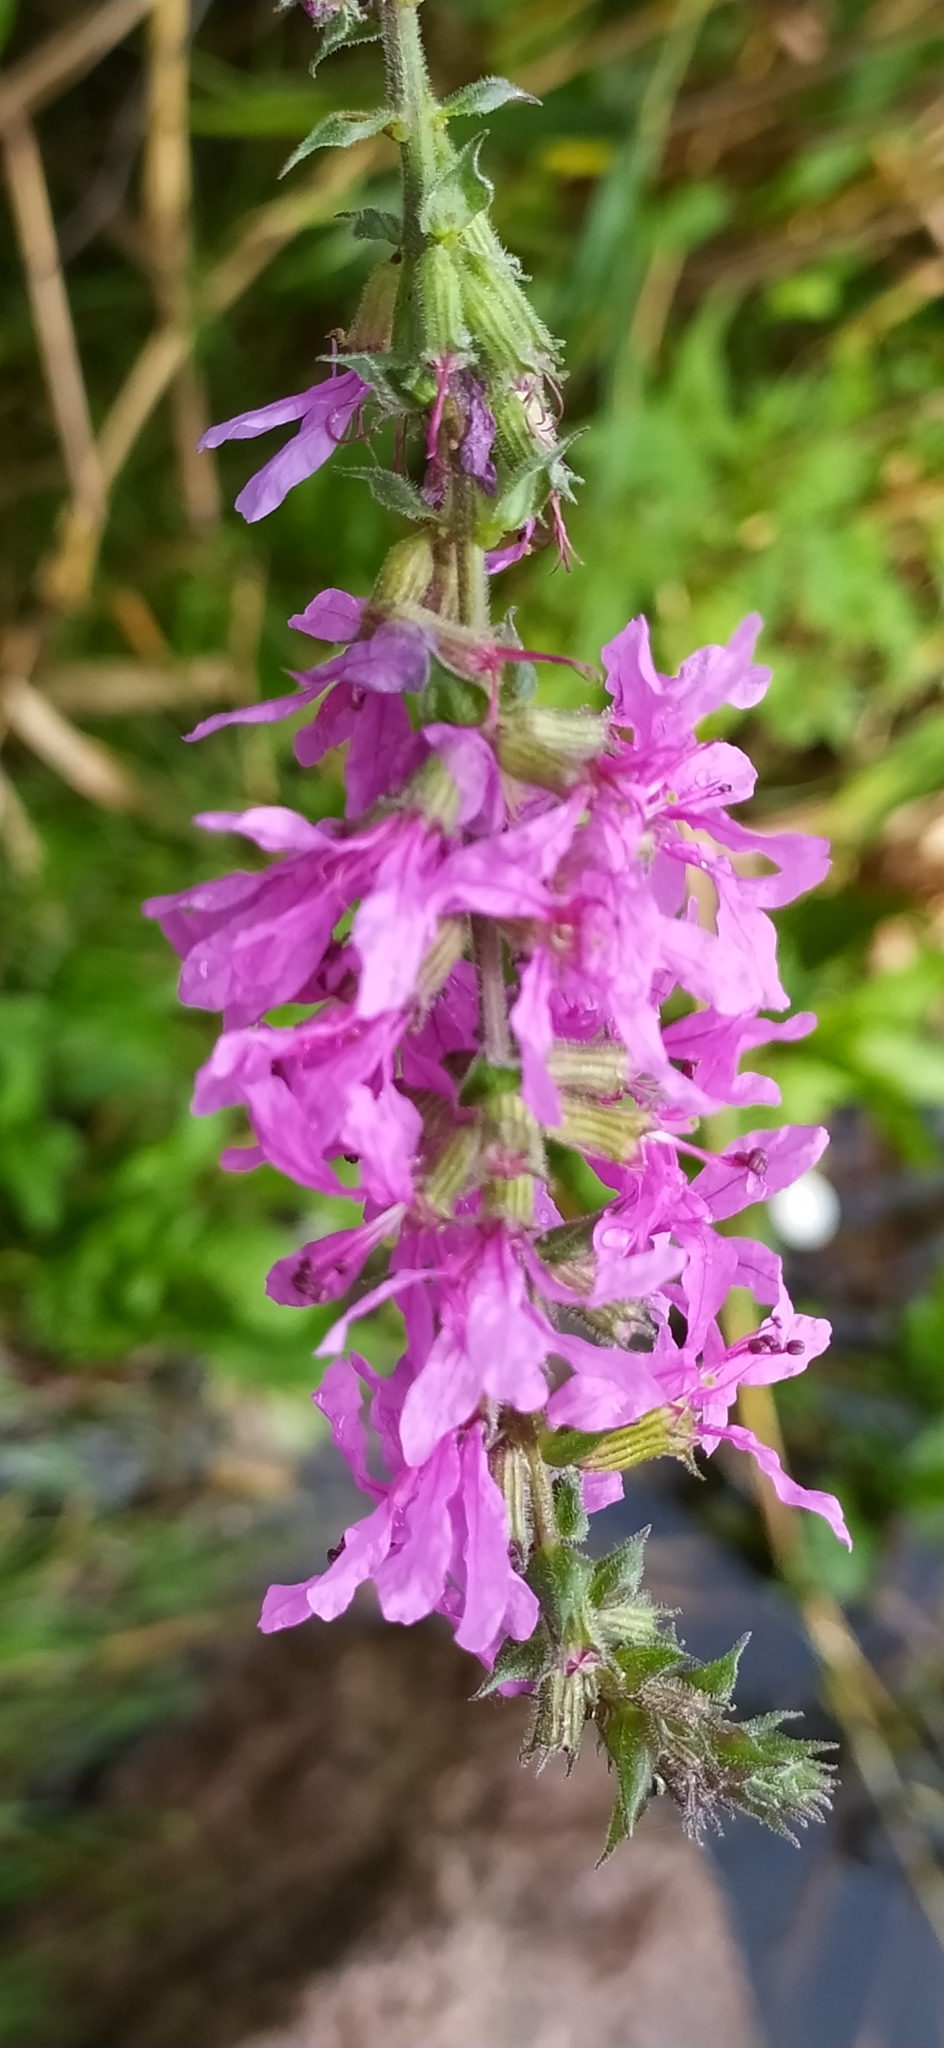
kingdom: Plantae
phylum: Tracheophyta
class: Magnoliopsida
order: Myrtales
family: Lythraceae
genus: Lythrum
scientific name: Lythrum salicaria
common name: Purple loosestrife
